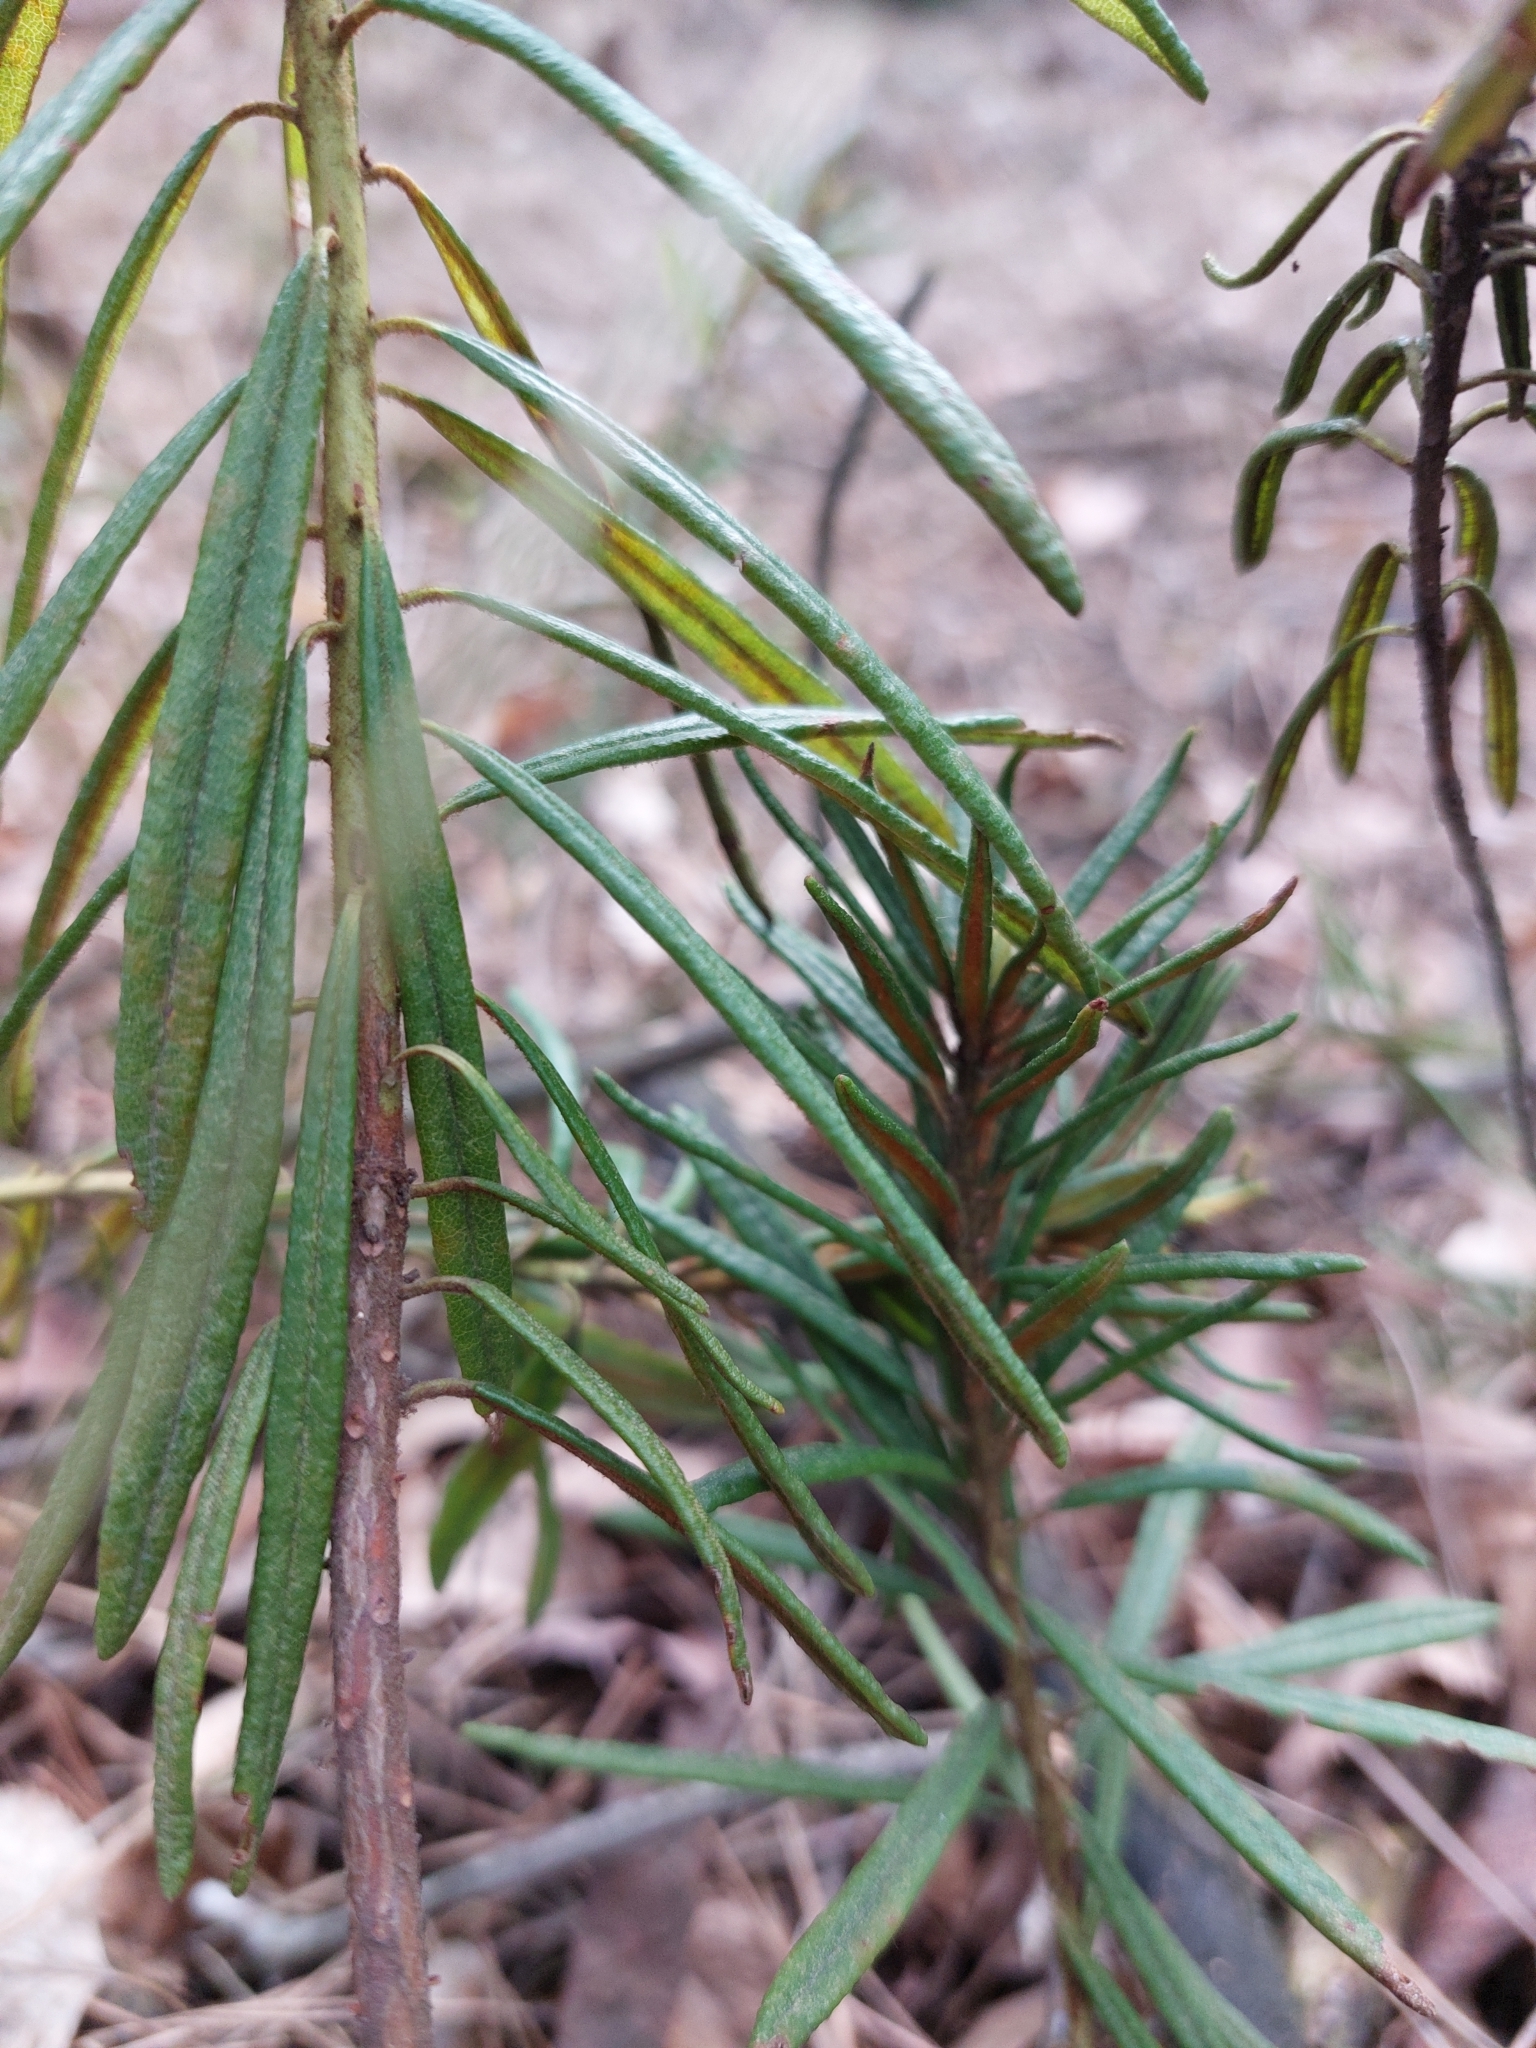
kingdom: Plantae
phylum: Tracheophyta
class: Magnoliopsida
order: Ericales
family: Ericaceae
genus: Rhododendron
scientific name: Rhododendron tomentosum
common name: Marsh labrador tea
